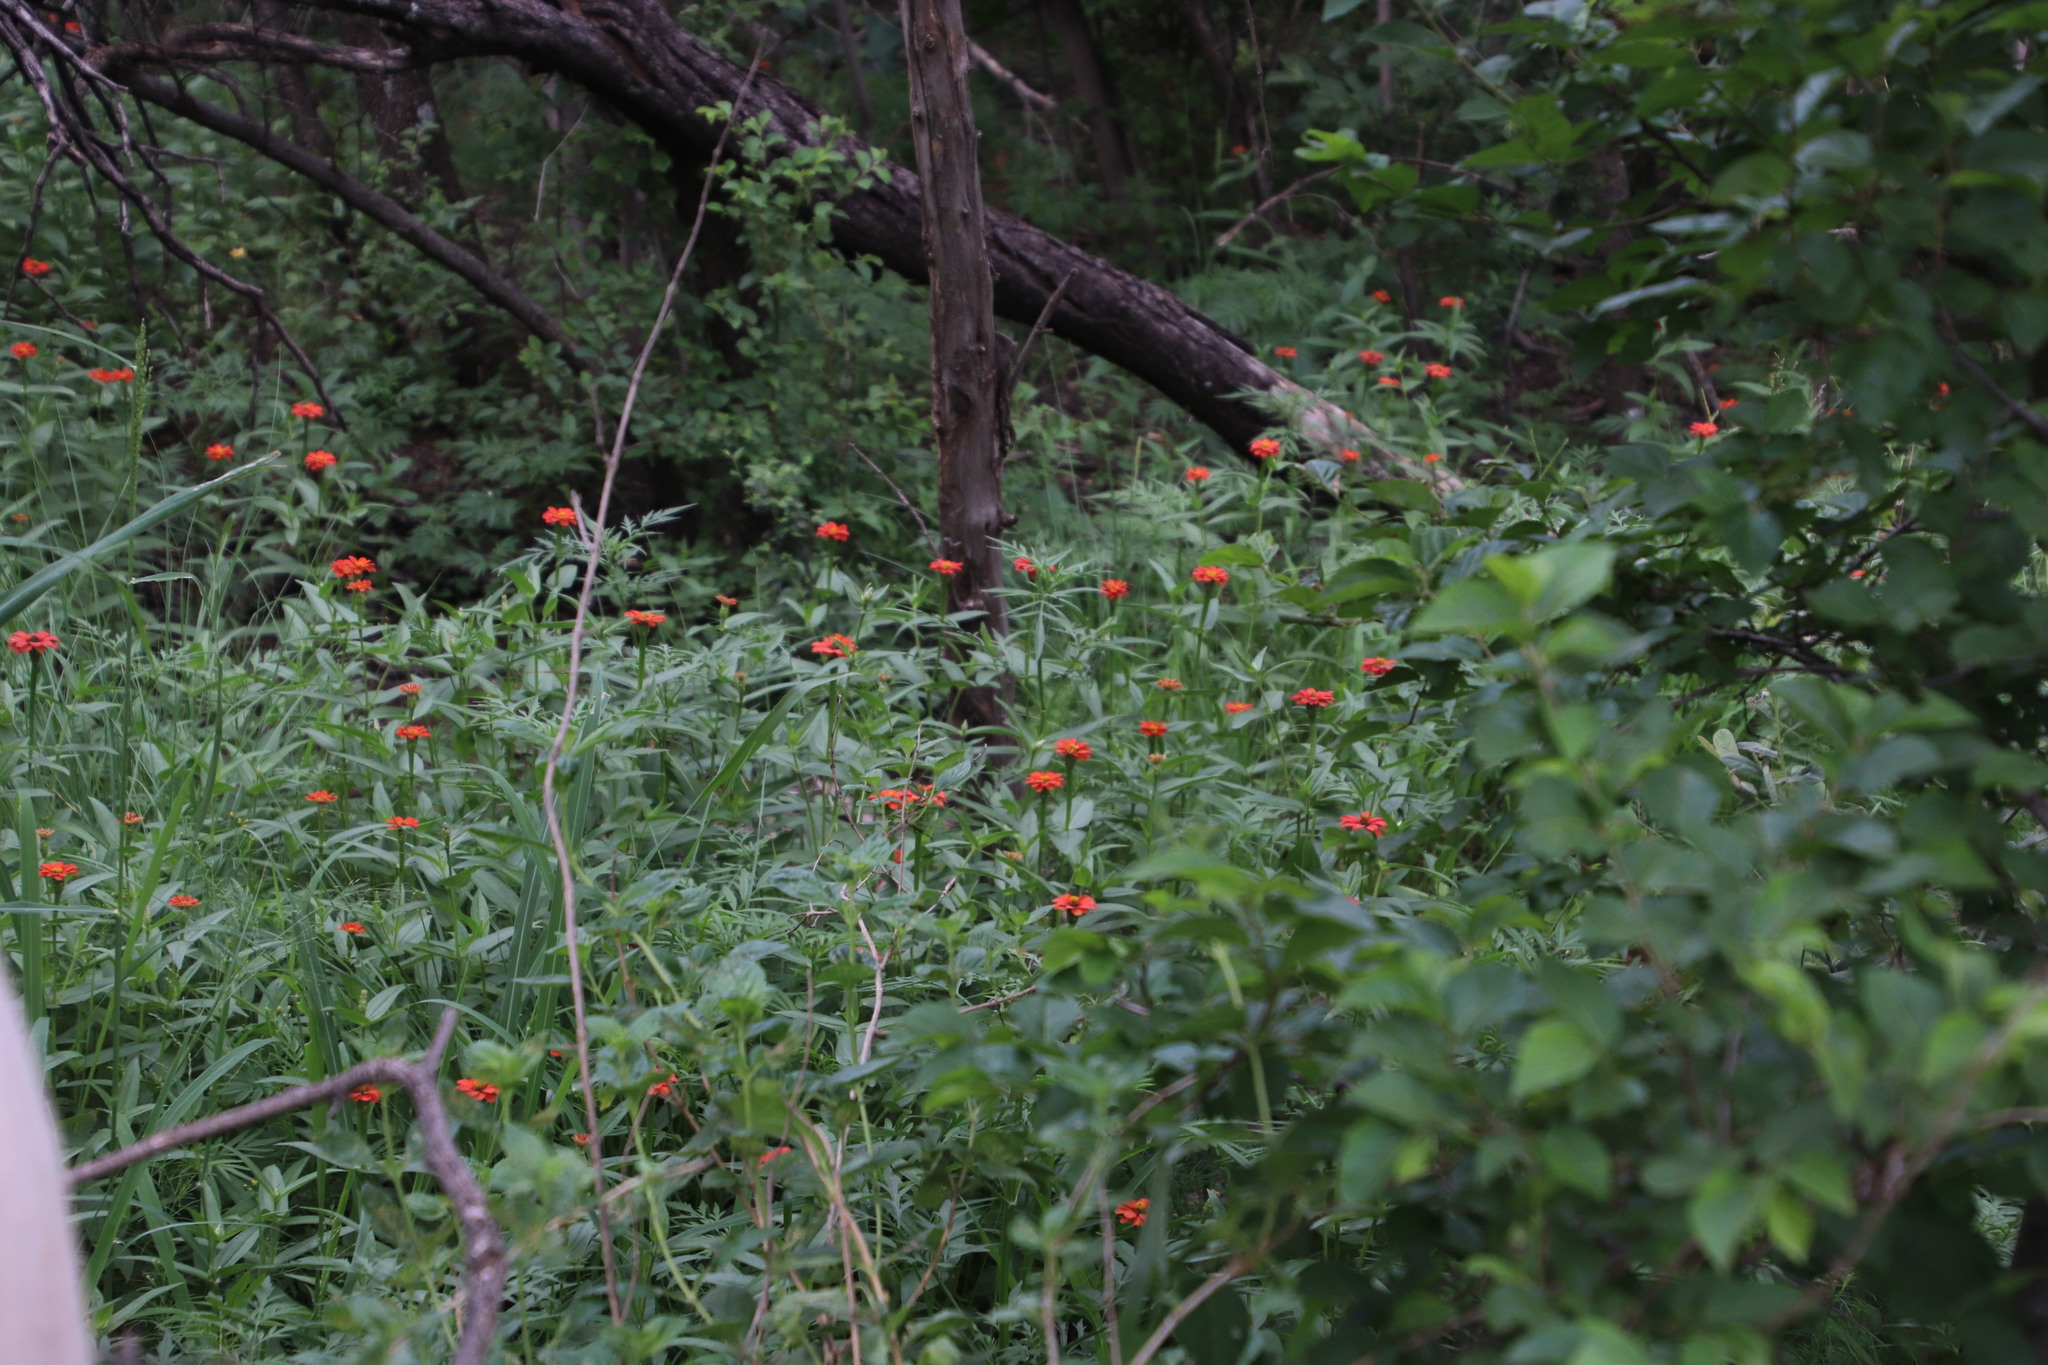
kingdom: Plantae
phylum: Tracheophyta
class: Magnoliopsida
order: Asterales
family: Asteraceae
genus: Zinnia
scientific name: Zinnia peruviana
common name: Peruvian zinnia
